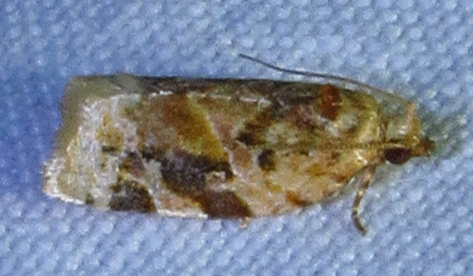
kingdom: Animalia
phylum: Arthropoda
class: Insecta
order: Lepidoptera
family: Tortricidae
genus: Argyrotaenia
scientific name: Argyrotaenia velutinana
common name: Red-banded leafroller moth
